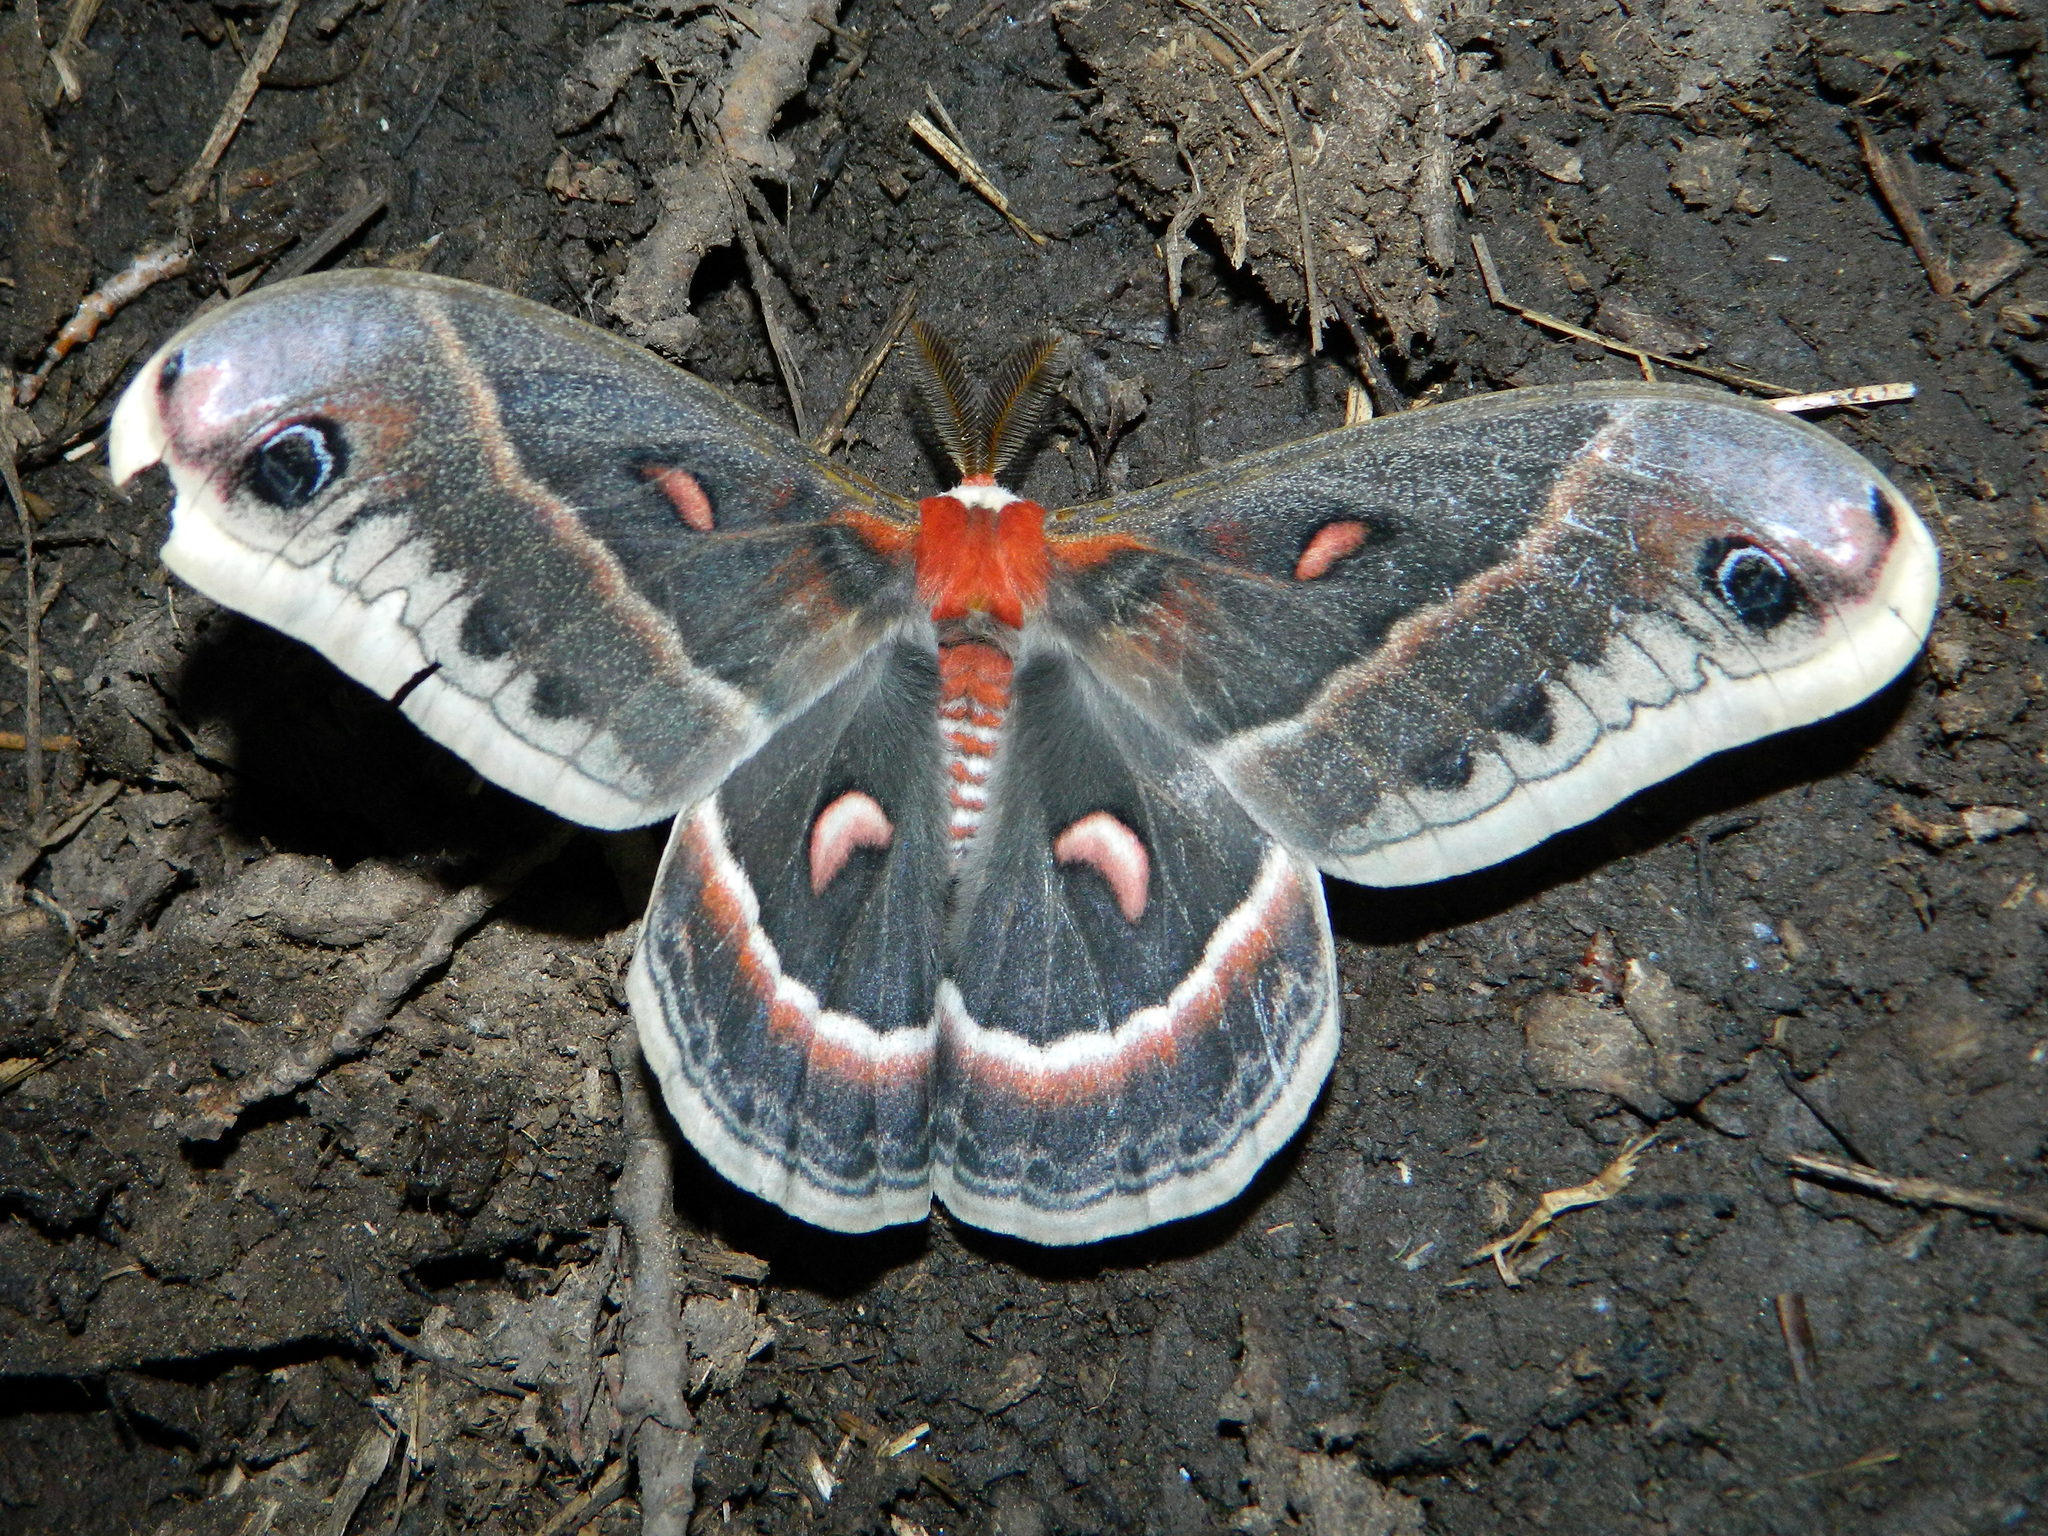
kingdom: Animalia
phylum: Arthropoda
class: Insecta
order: Lepidoptera
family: Saturniidae
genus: Hyalophora
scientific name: Hyalophora cecropia
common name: Cecropia silkmoth
